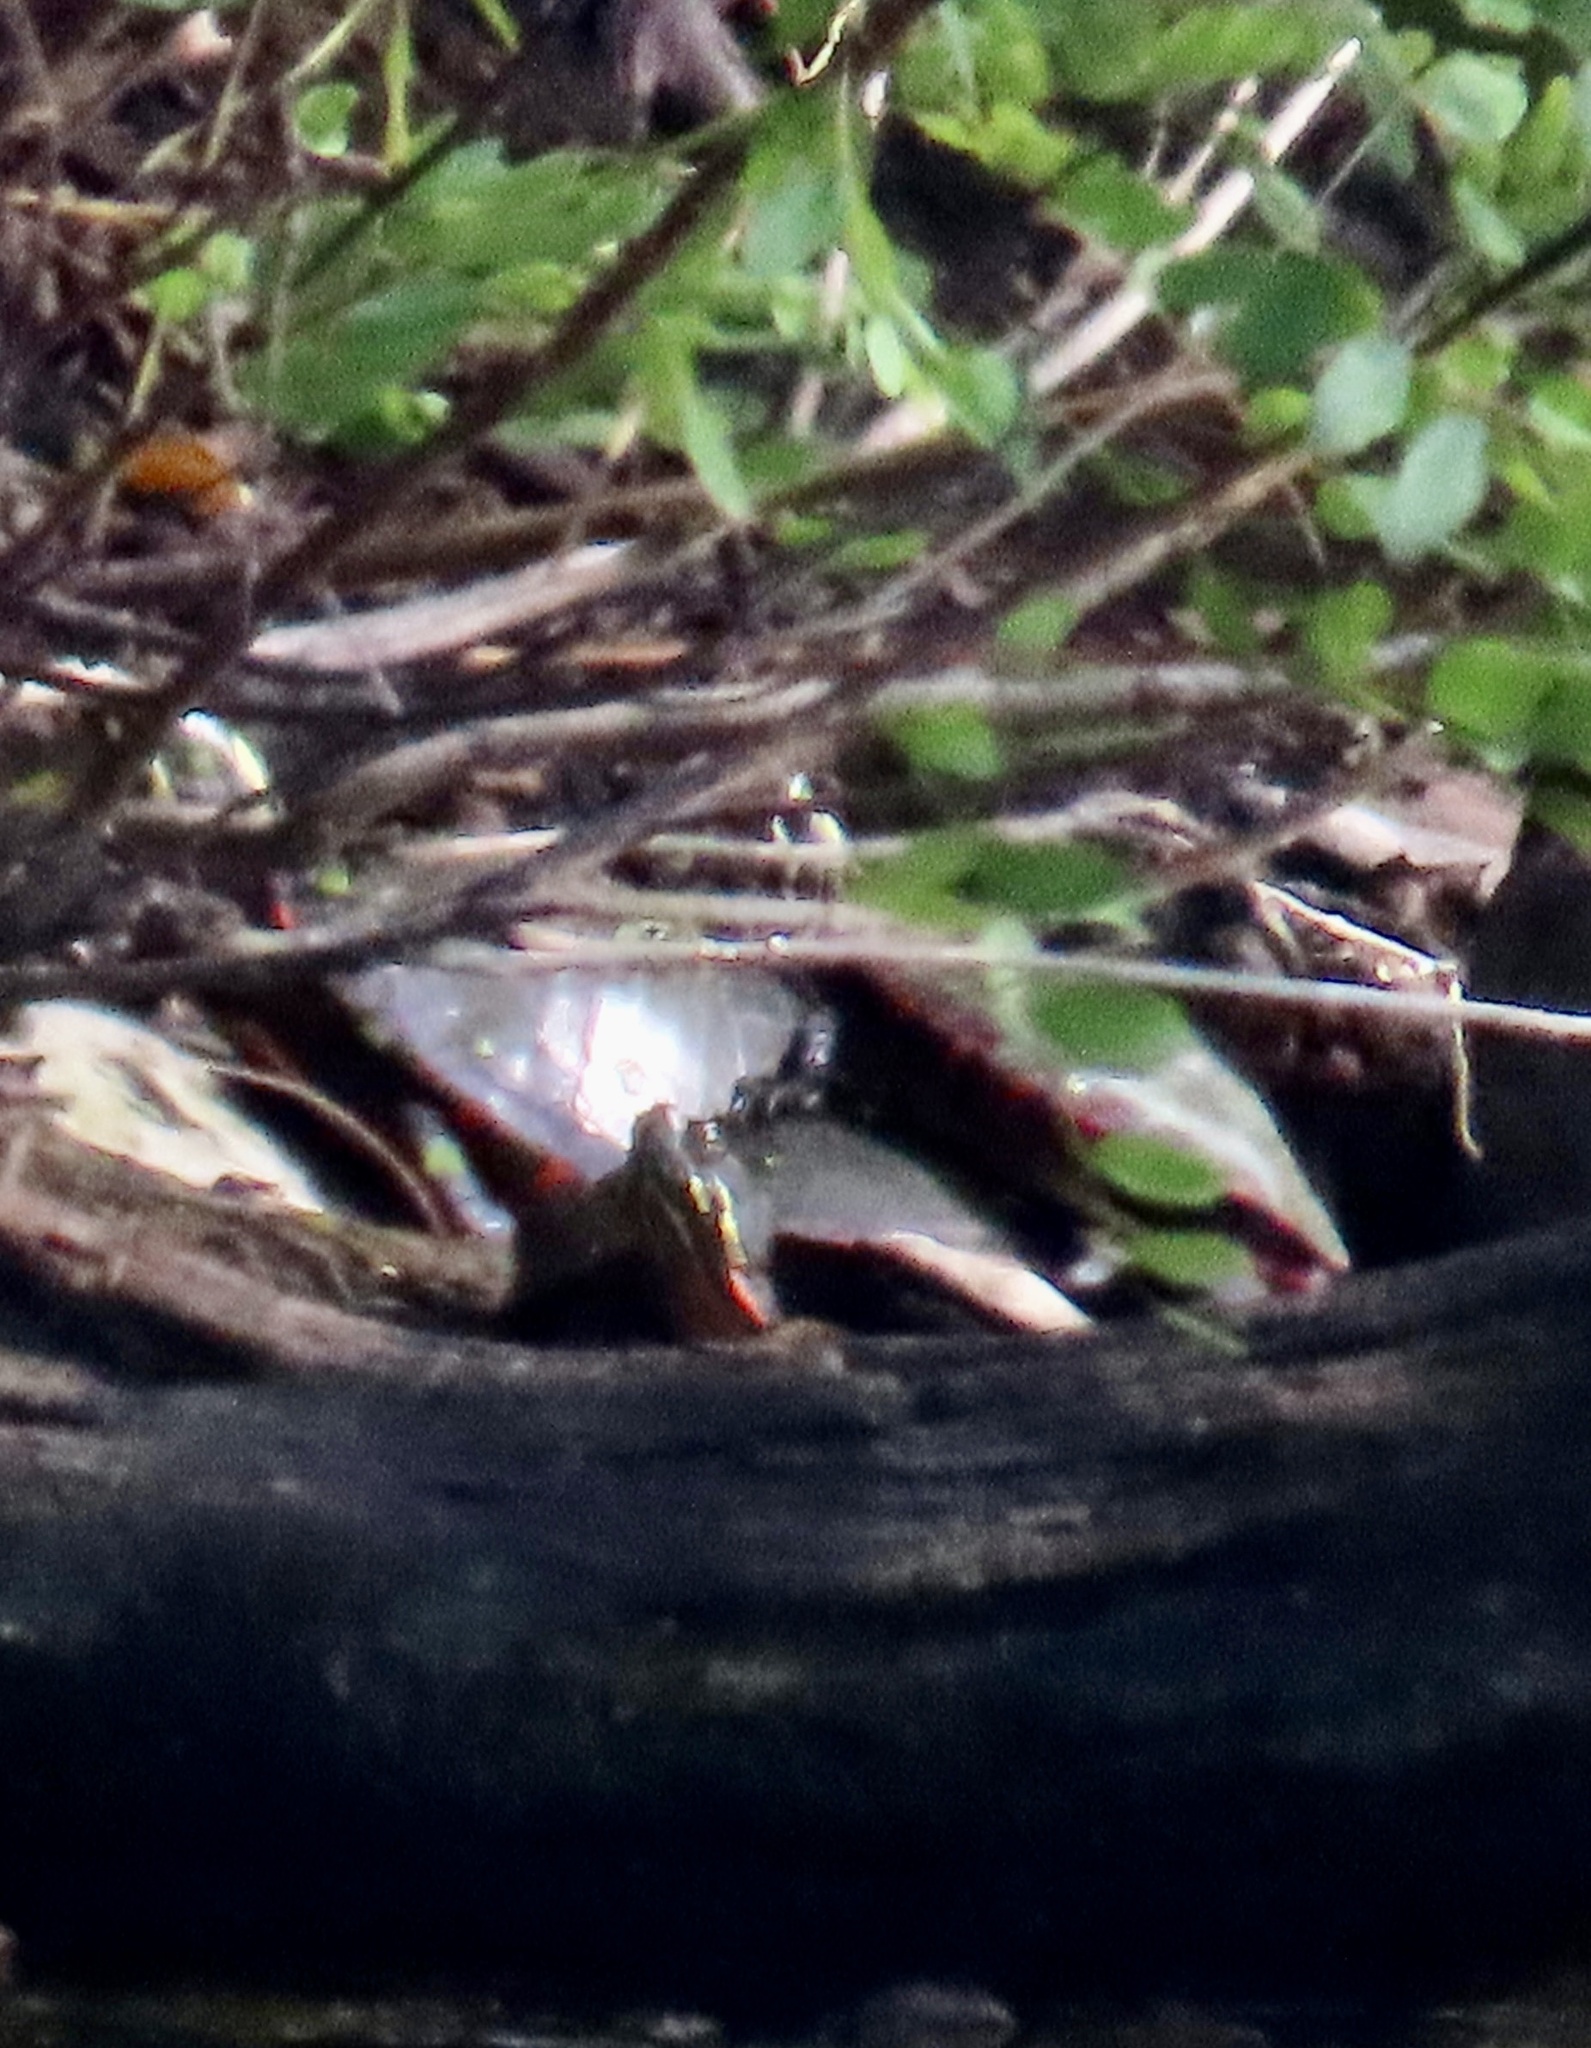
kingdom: Animalia
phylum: Chordata
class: Testudines
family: Emydidae
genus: Chrysemys
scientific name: Chrysemys picta
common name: Painted turtle
